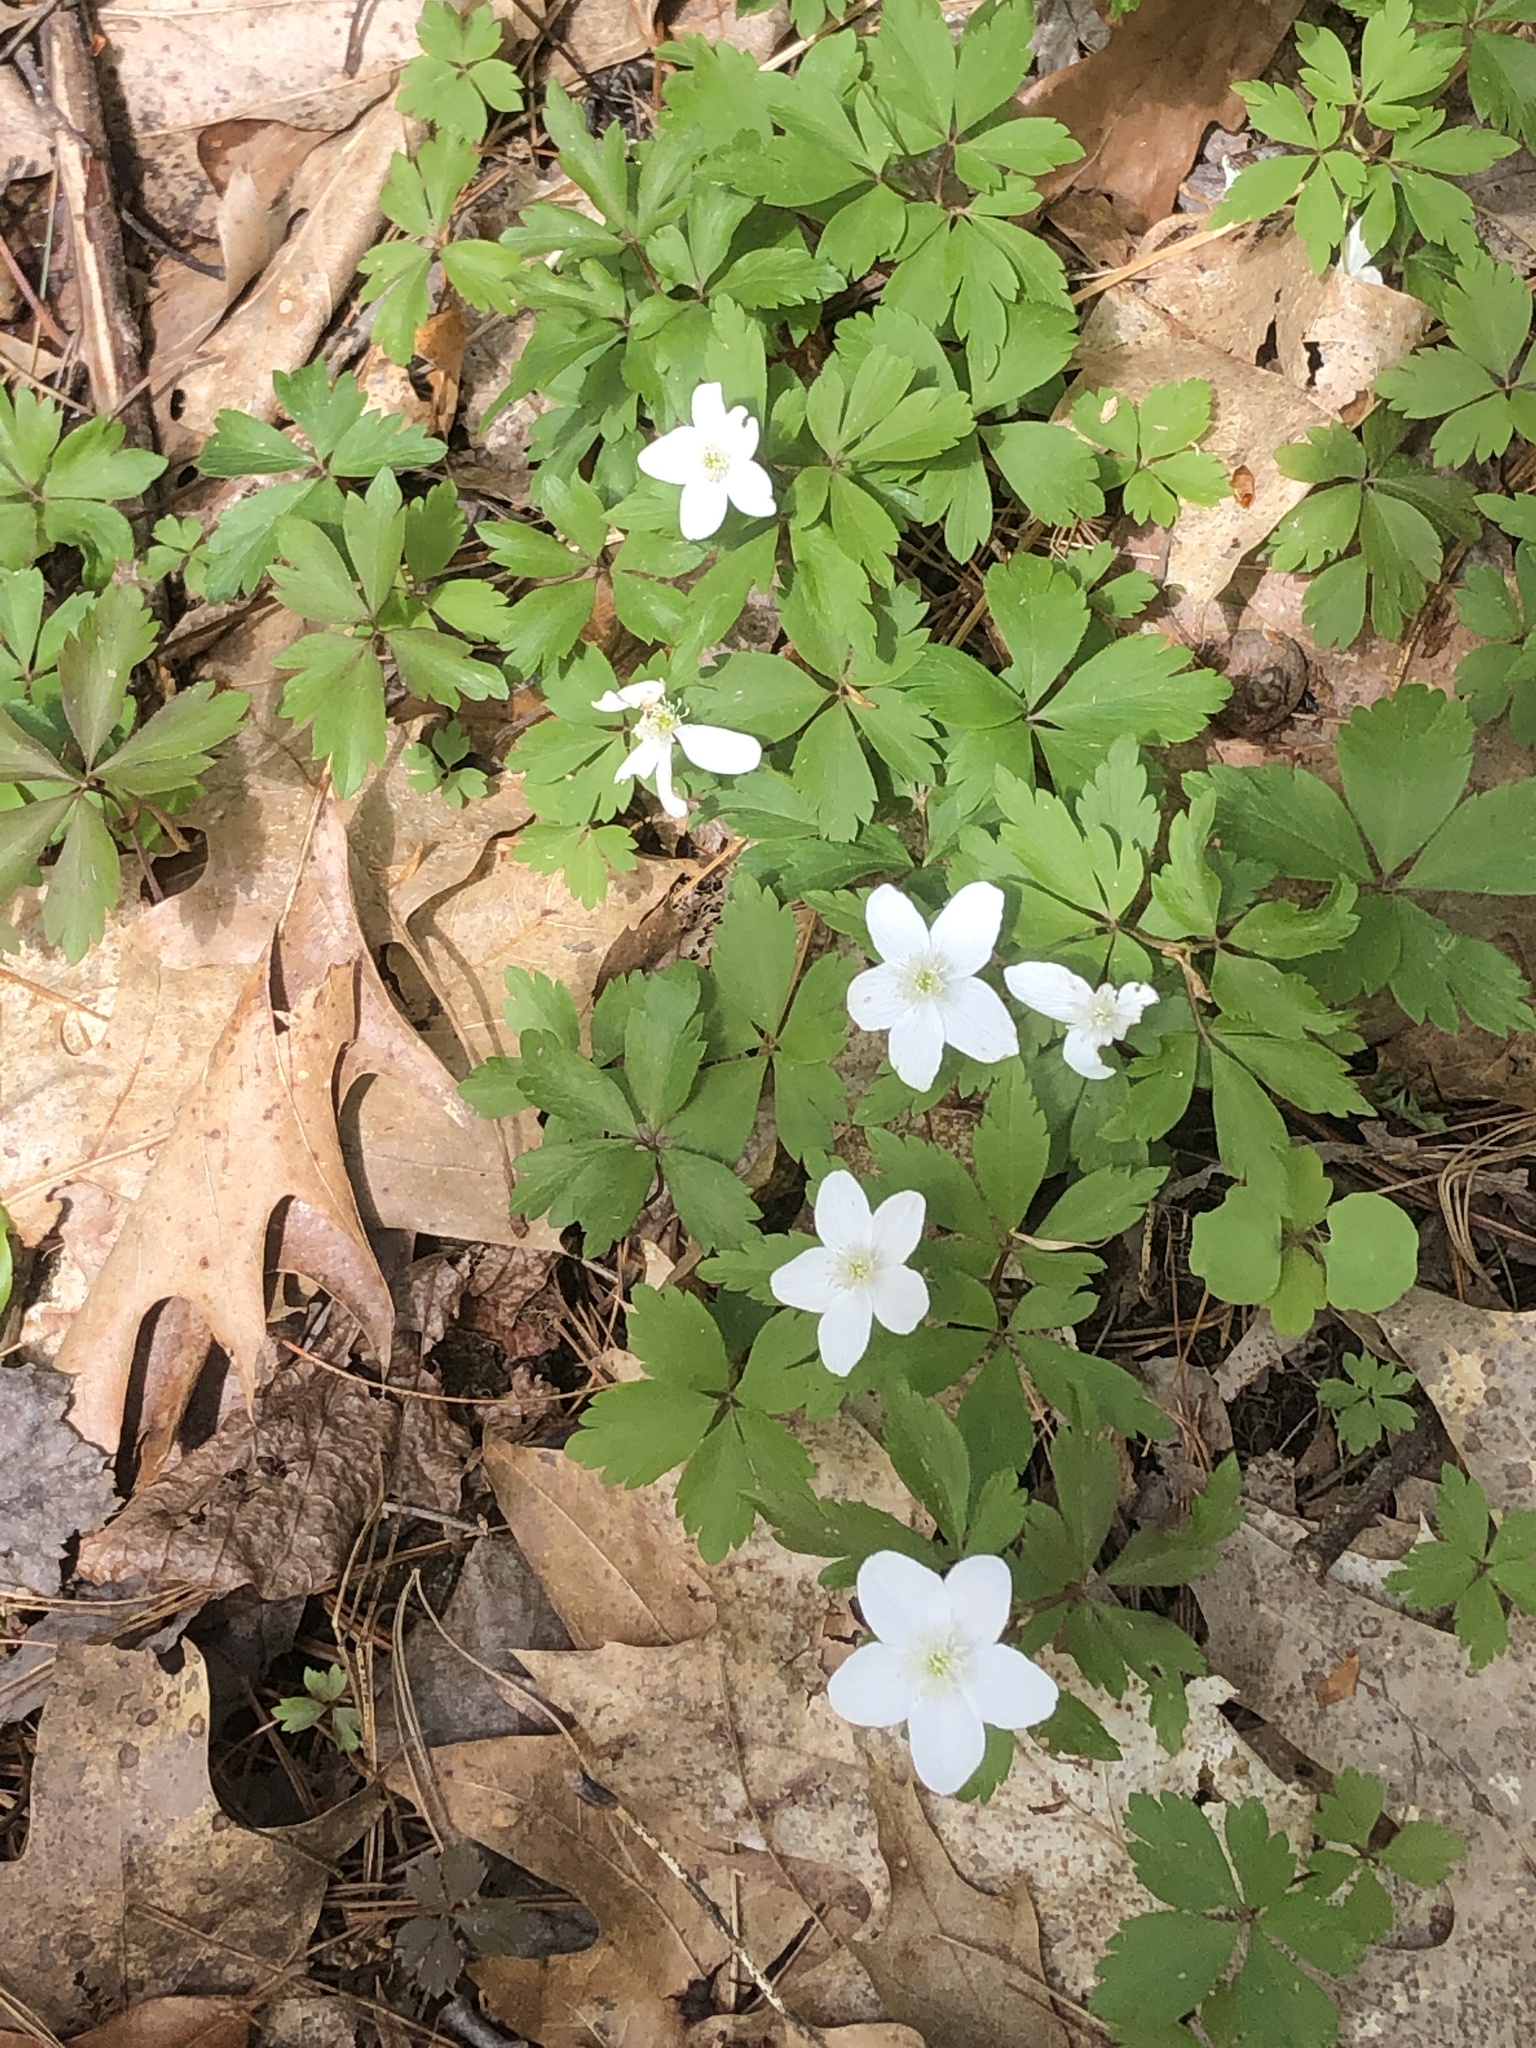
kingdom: Plantae
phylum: Tracheophyta
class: Magnoliopsida
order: Ranunculales
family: Ranunculaceae
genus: Anemone
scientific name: Anemone quinquefolia
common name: Wood anemone
